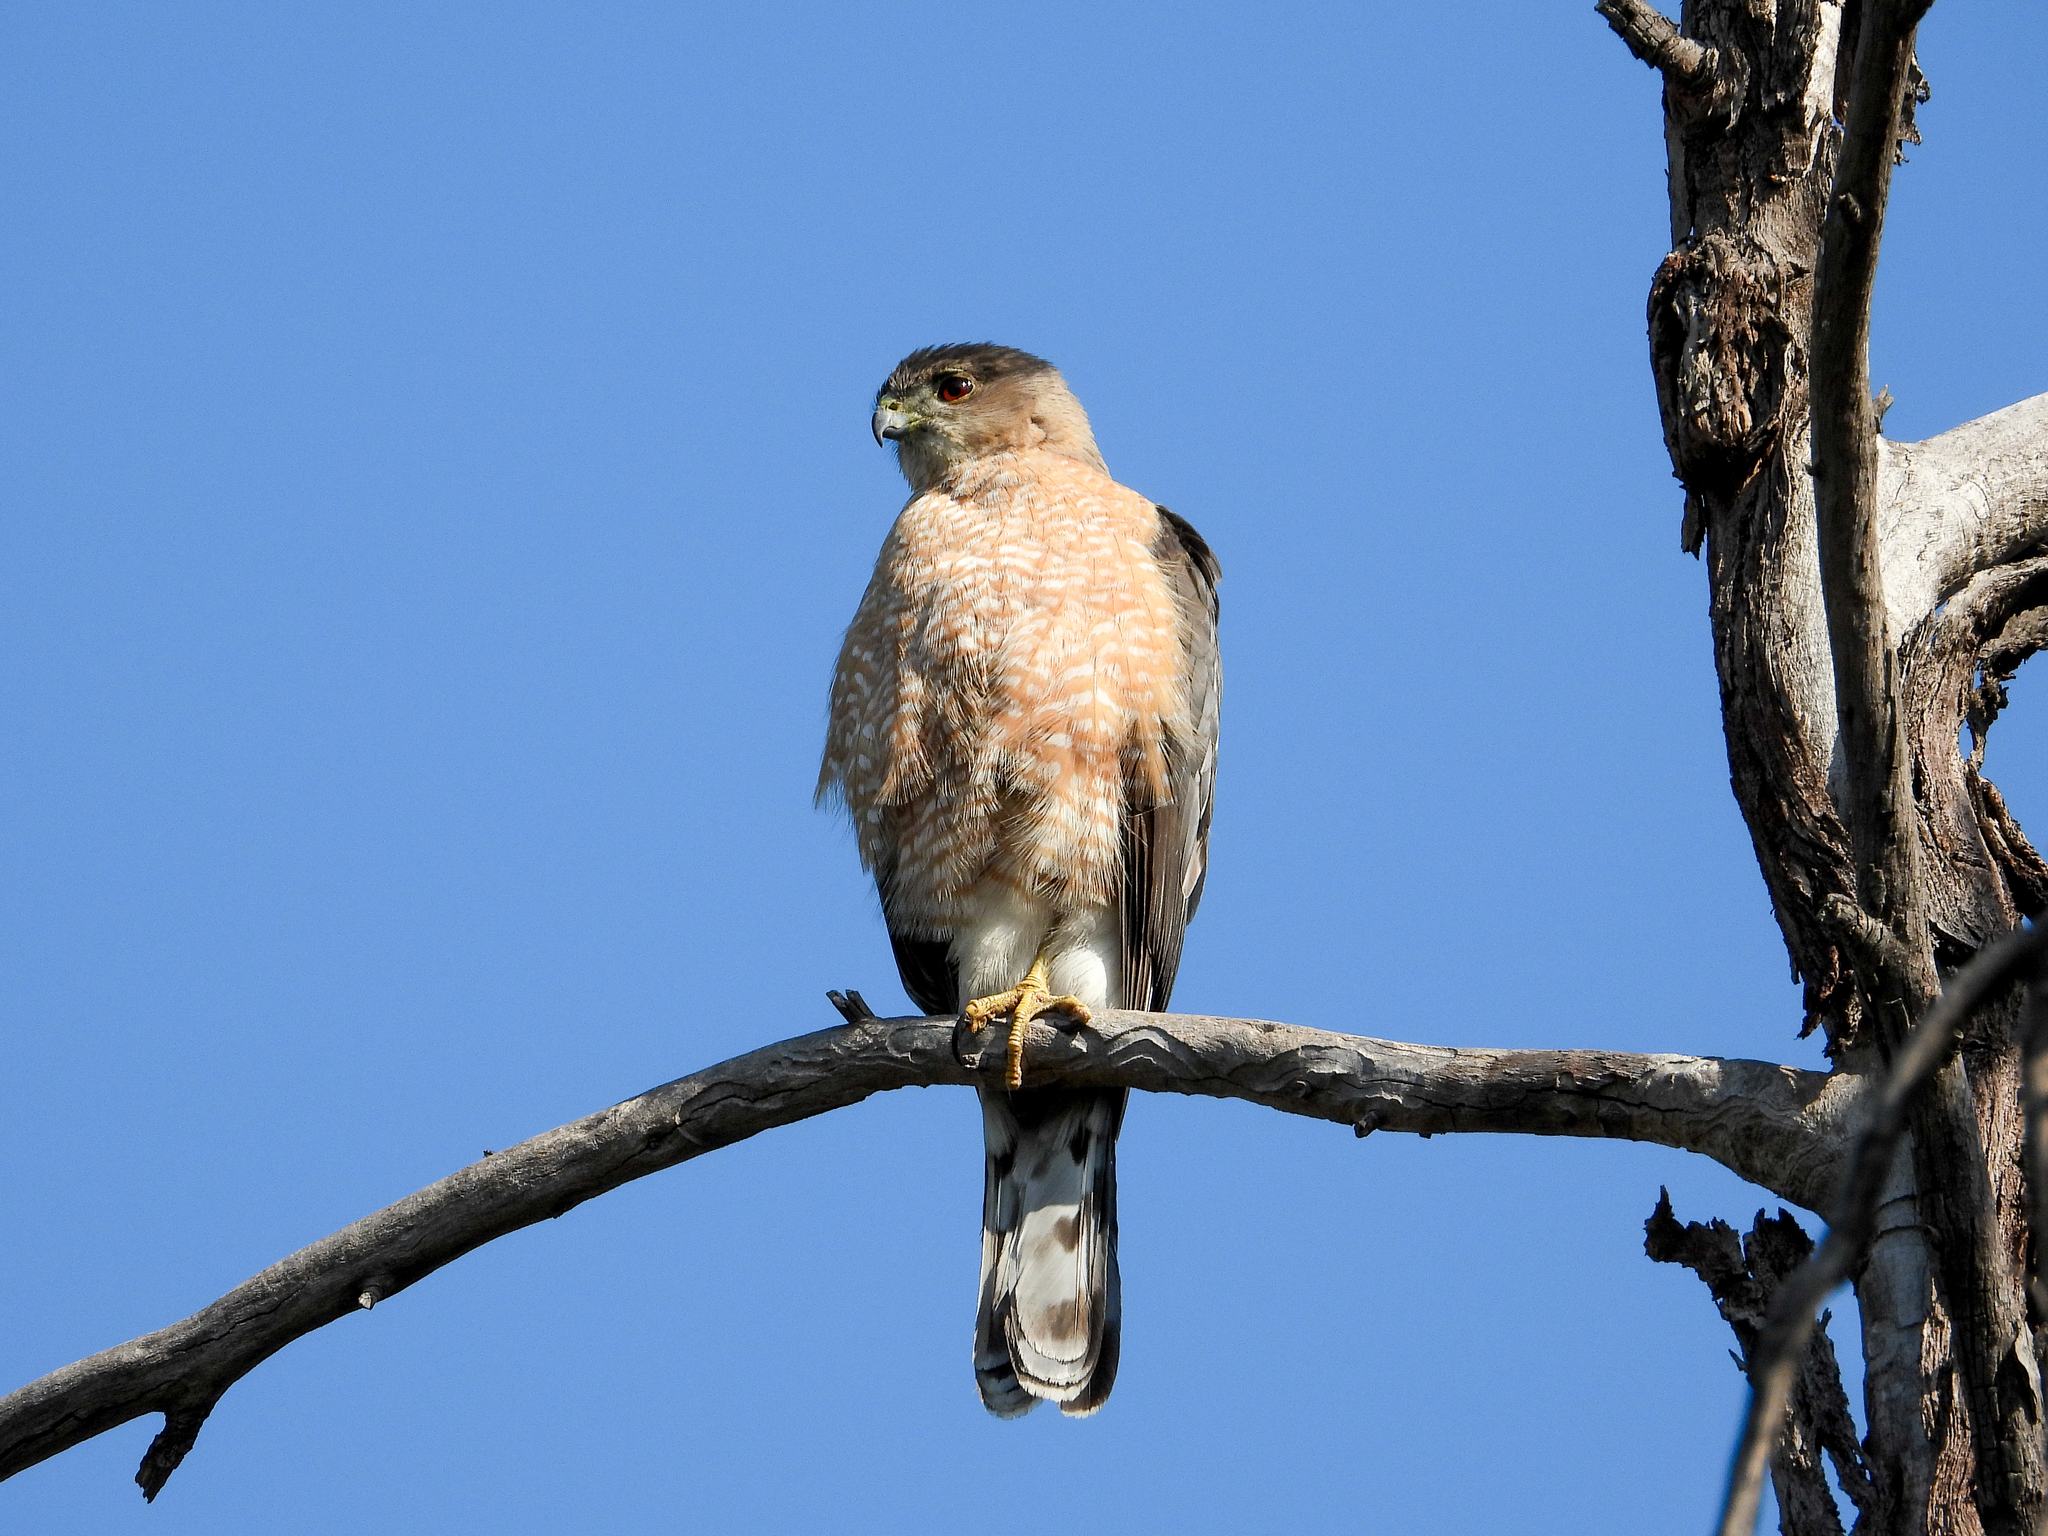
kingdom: Animalia
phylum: Chordata
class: Aves
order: Accipitriformes
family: Accipitridae
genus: Accipiter
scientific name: Accipiter cooperii
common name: Cooper's hawk
